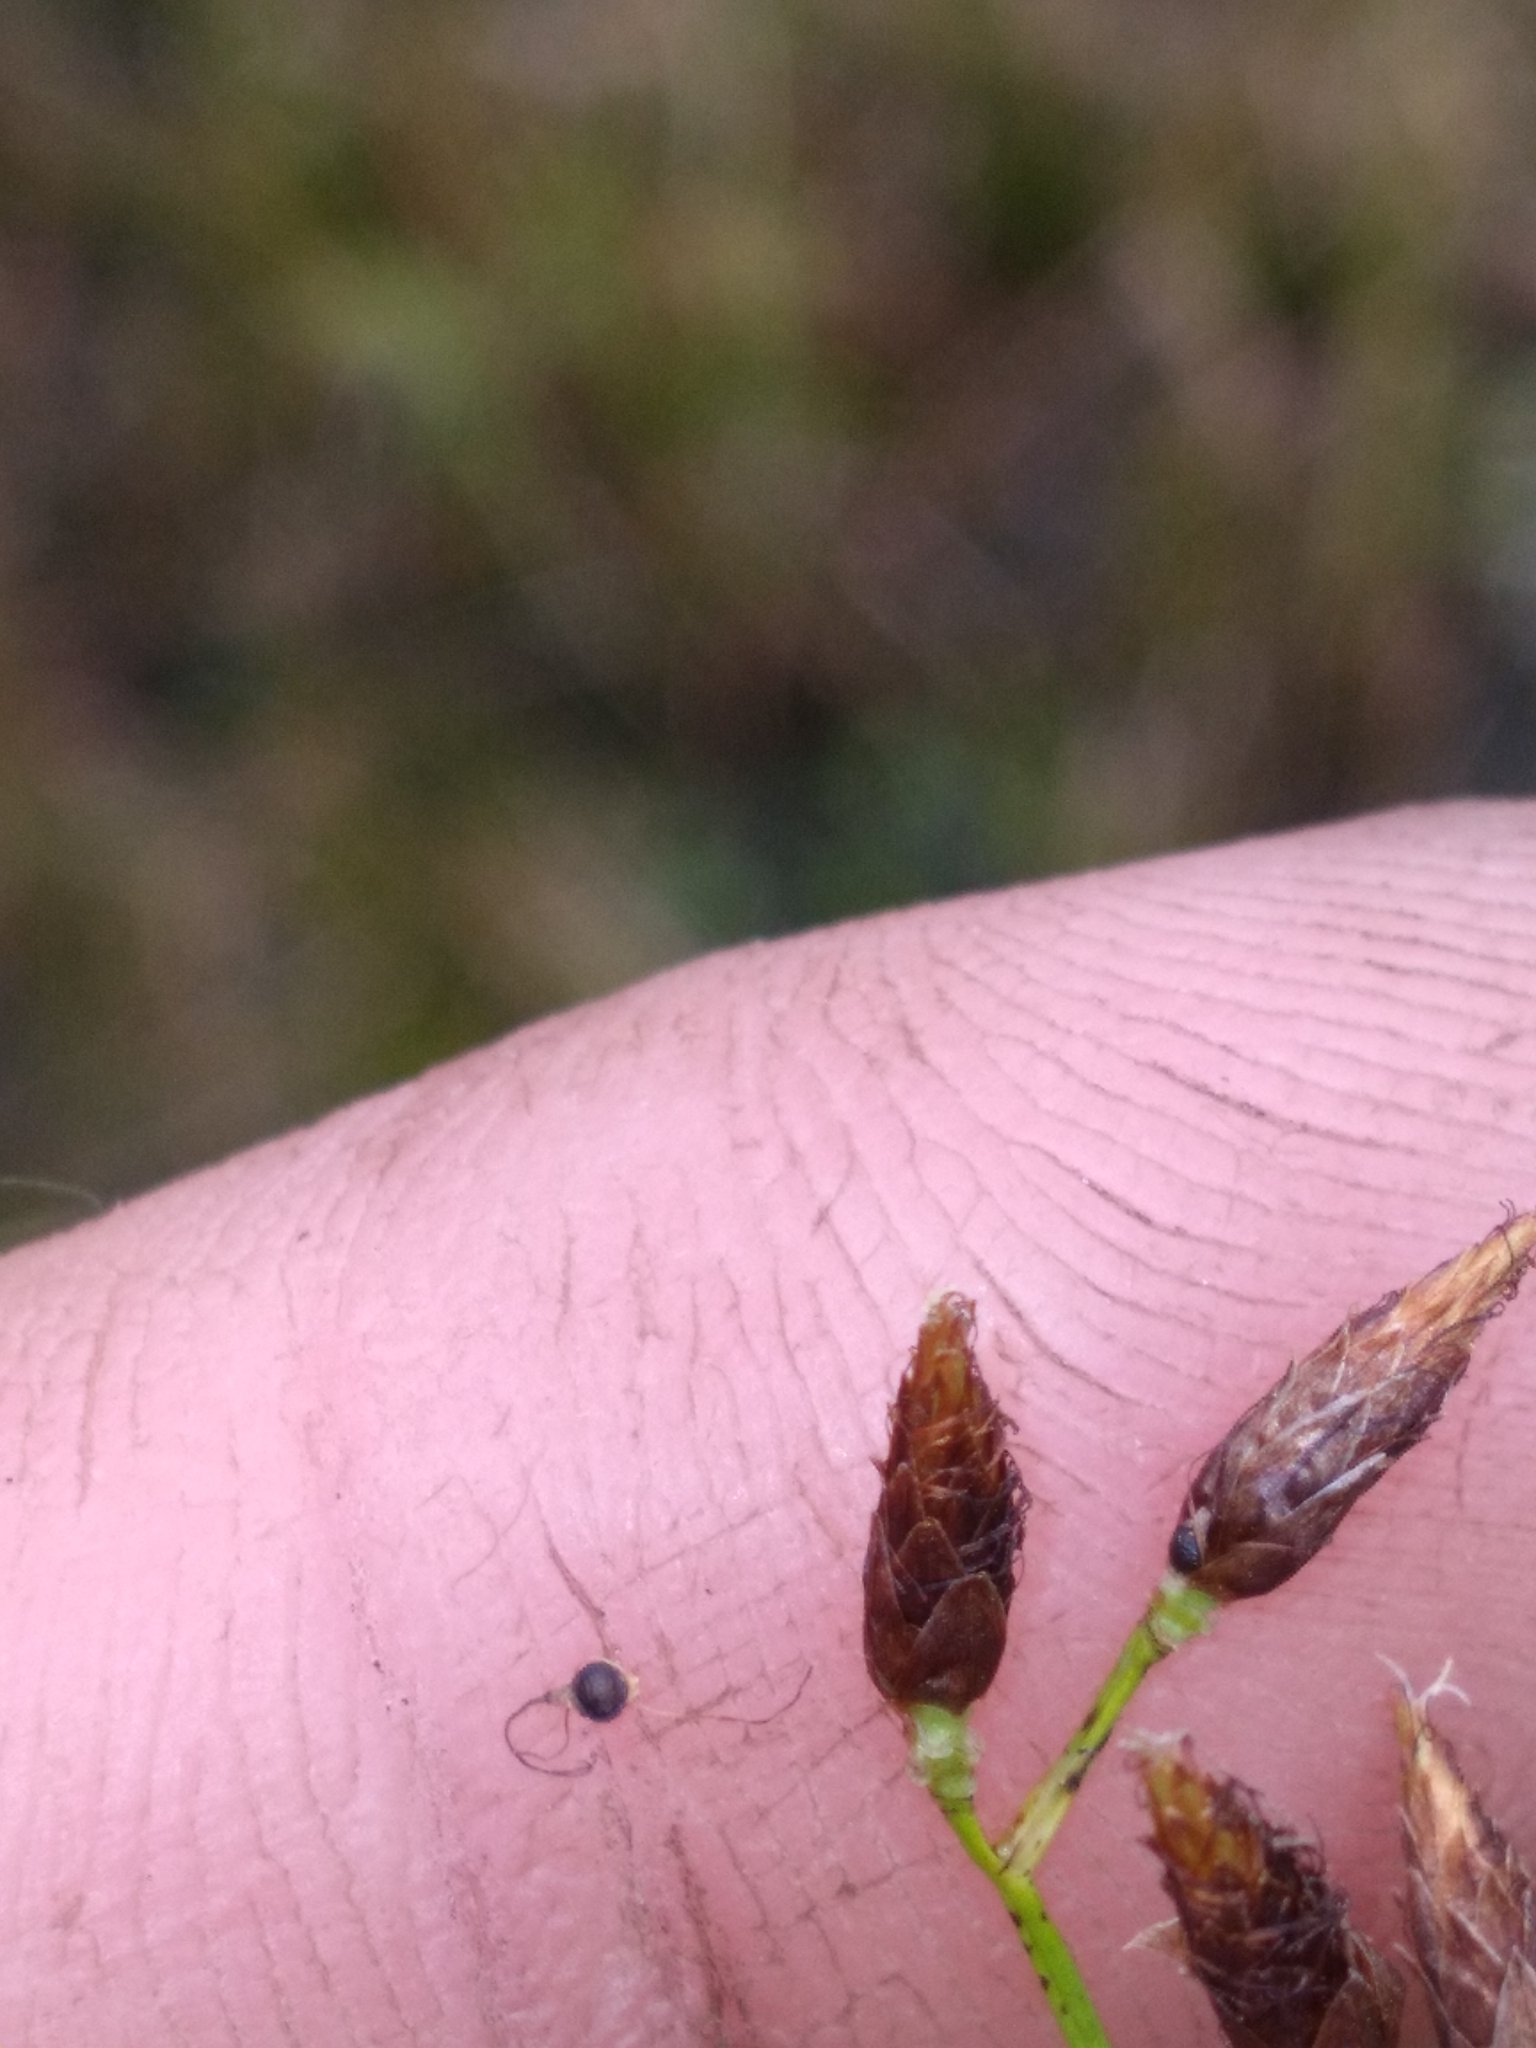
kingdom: Plantae
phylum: Tracheophyta
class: Liliopsida
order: Poales
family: Cyperaceae
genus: Rhynchospora
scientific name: Rhynchospora nitens
